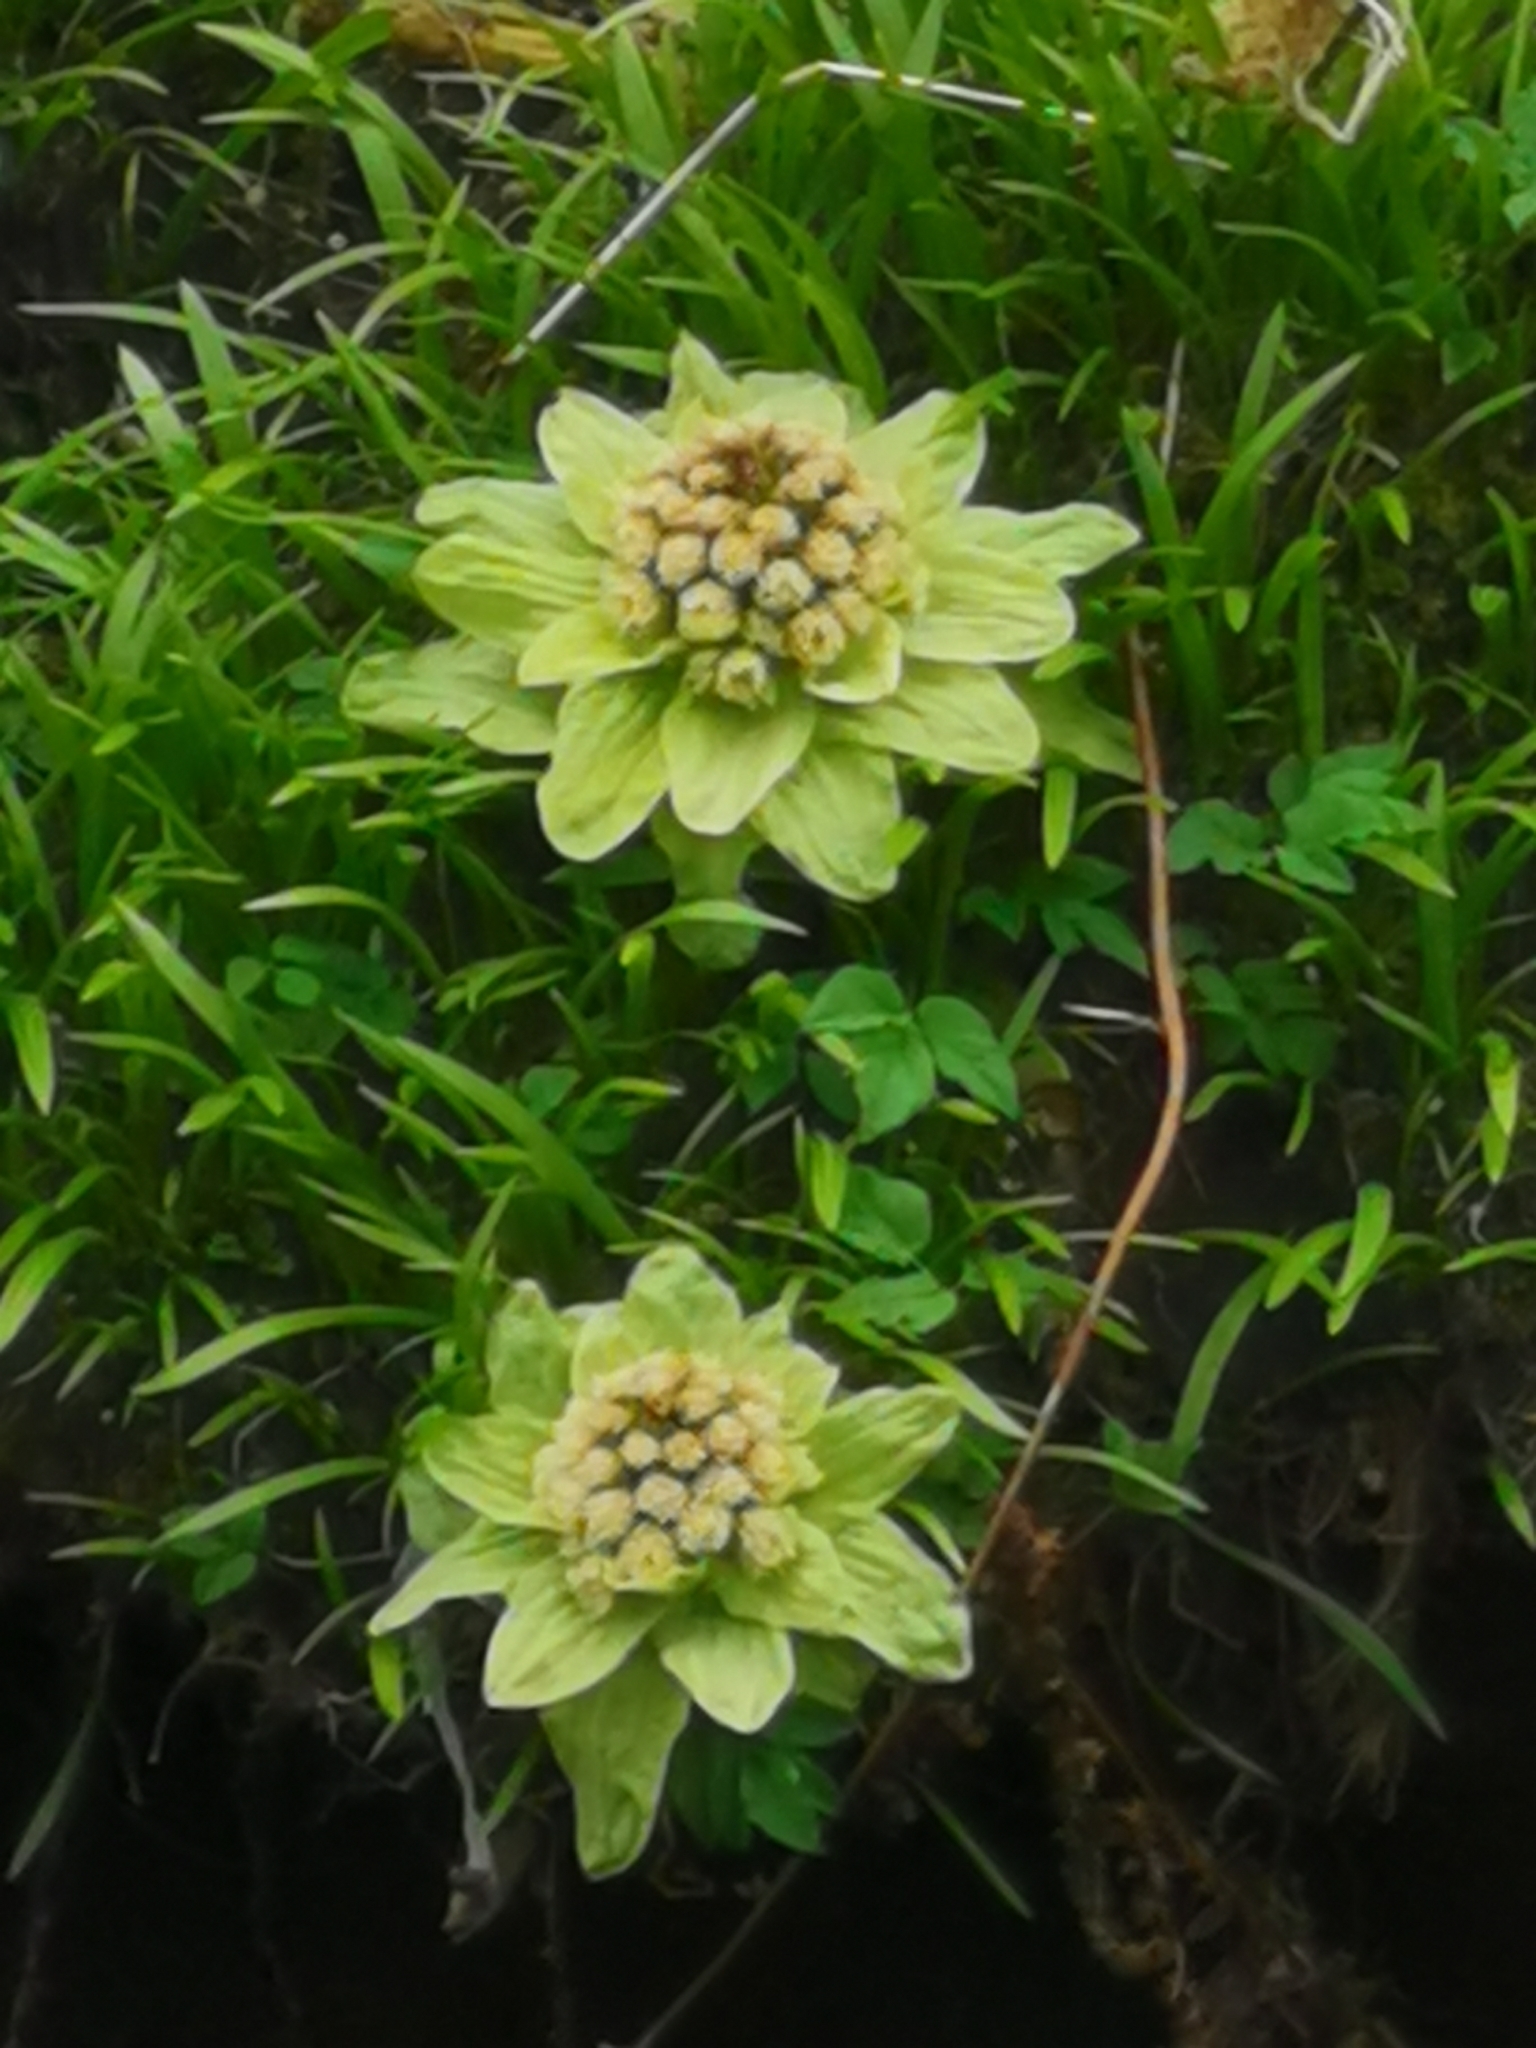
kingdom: Plantae
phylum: Tracheophyta
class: Magnoliopsida
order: Asterales
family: Asteraceae
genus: Petasites
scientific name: Petasites japonicus
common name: Giant butterbur
